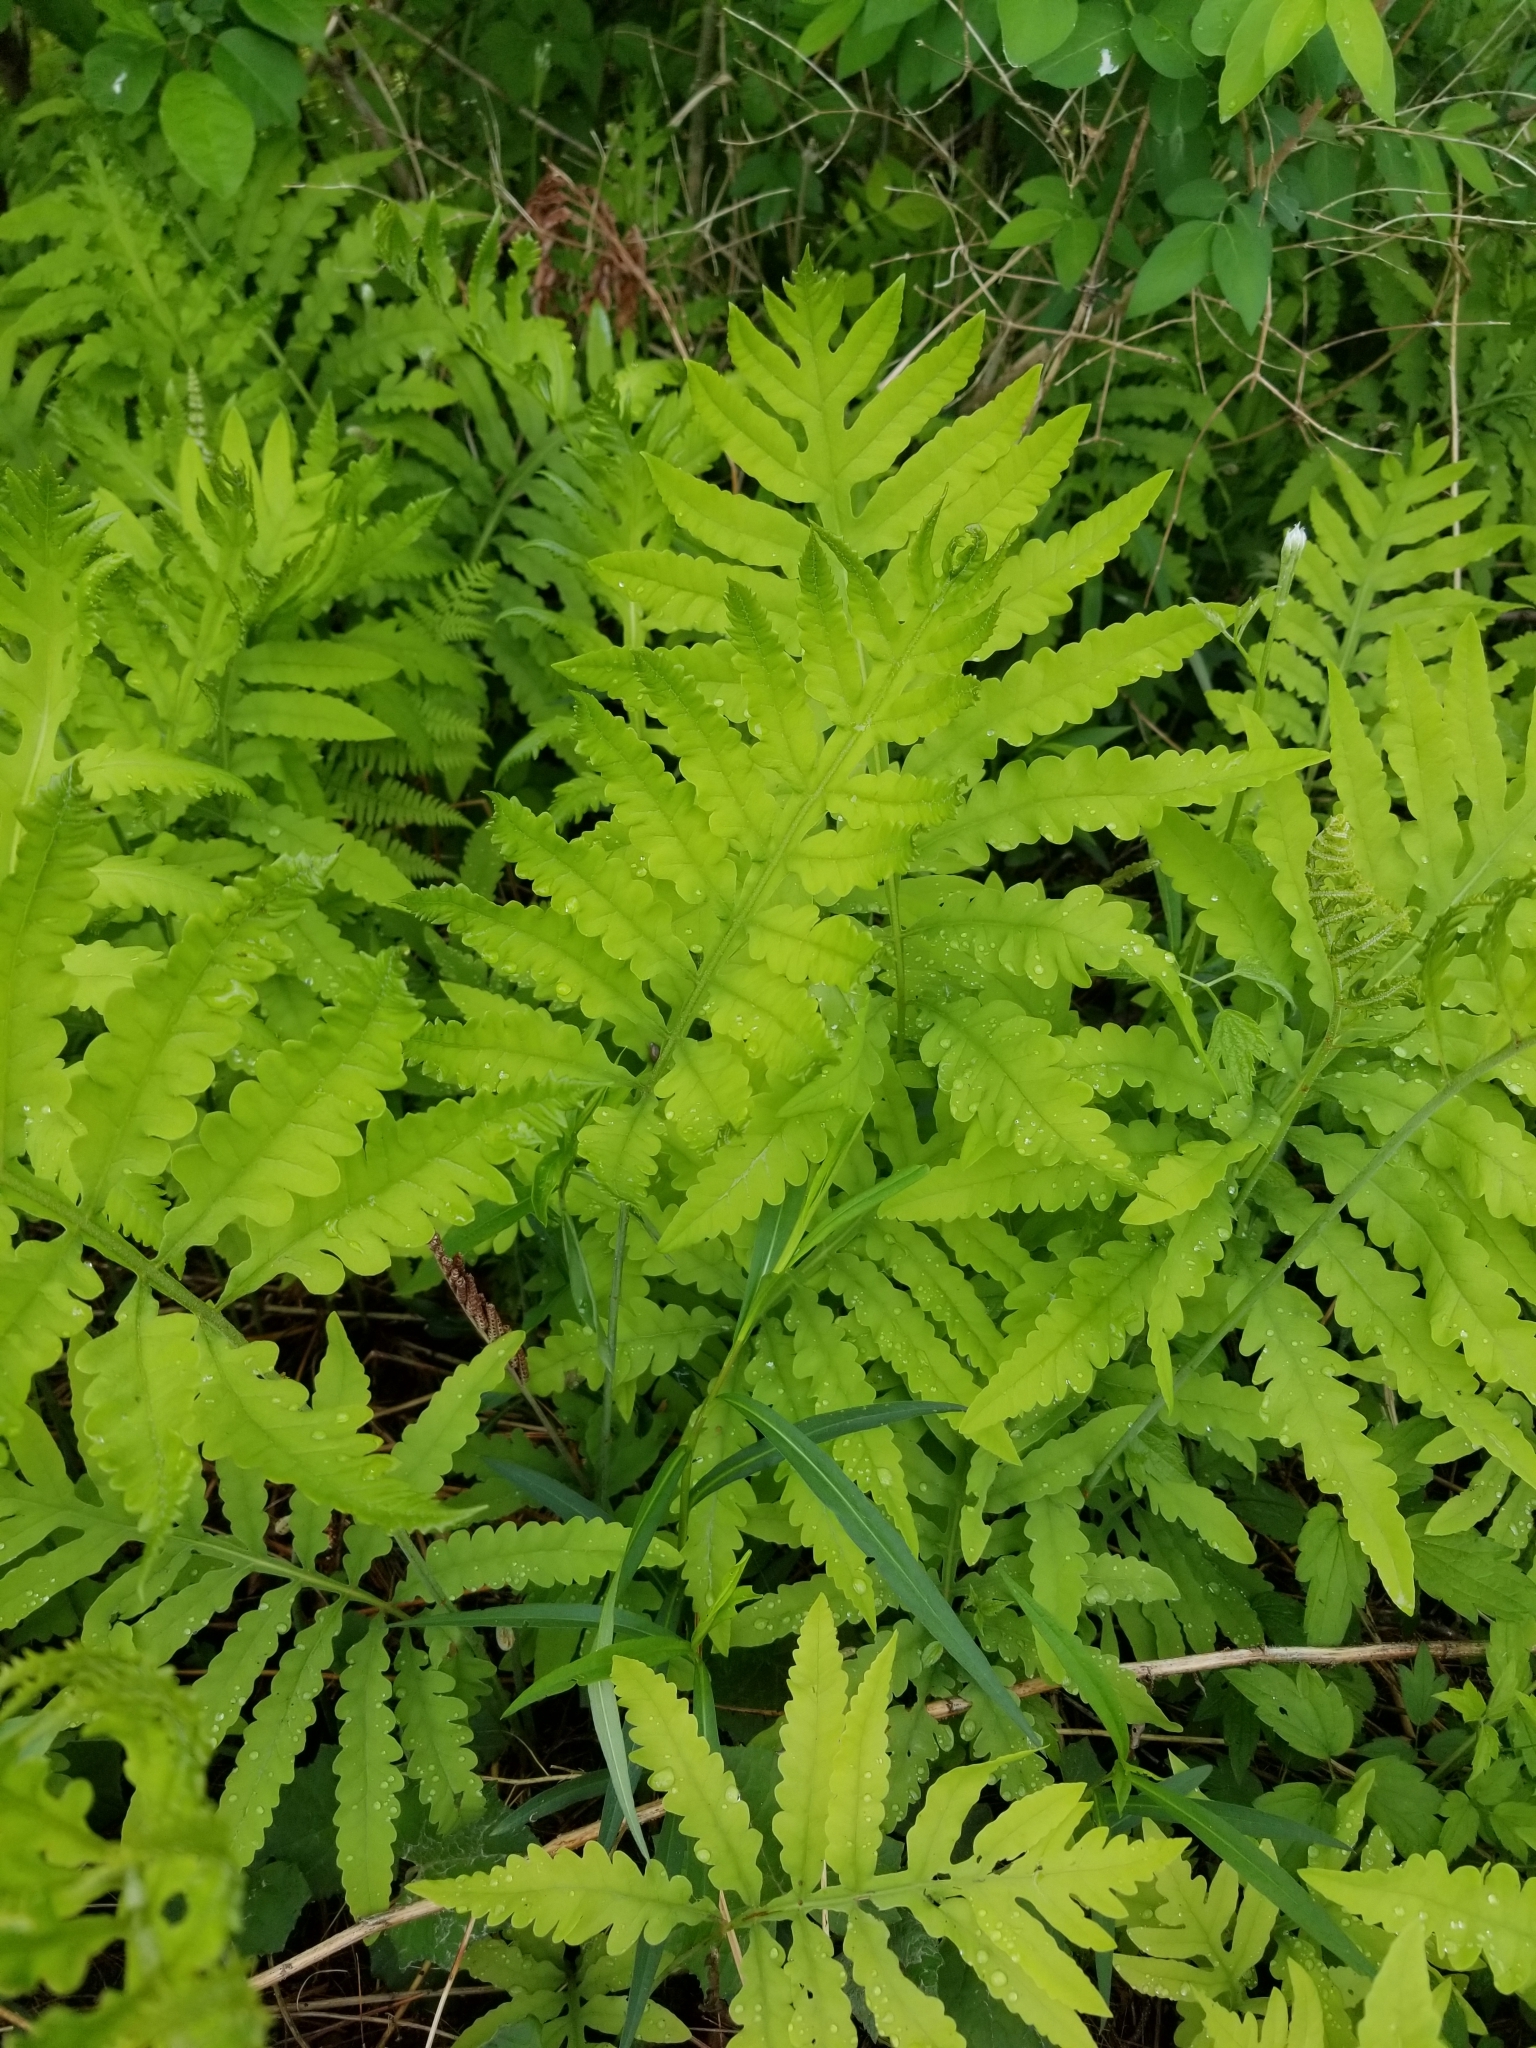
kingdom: Plantae
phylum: Tracheophyta
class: Polypodiopsida
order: Polypodiales
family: Onocleaceae
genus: Onoclea
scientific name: Onoclea sensibilis
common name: Sensitive fern
